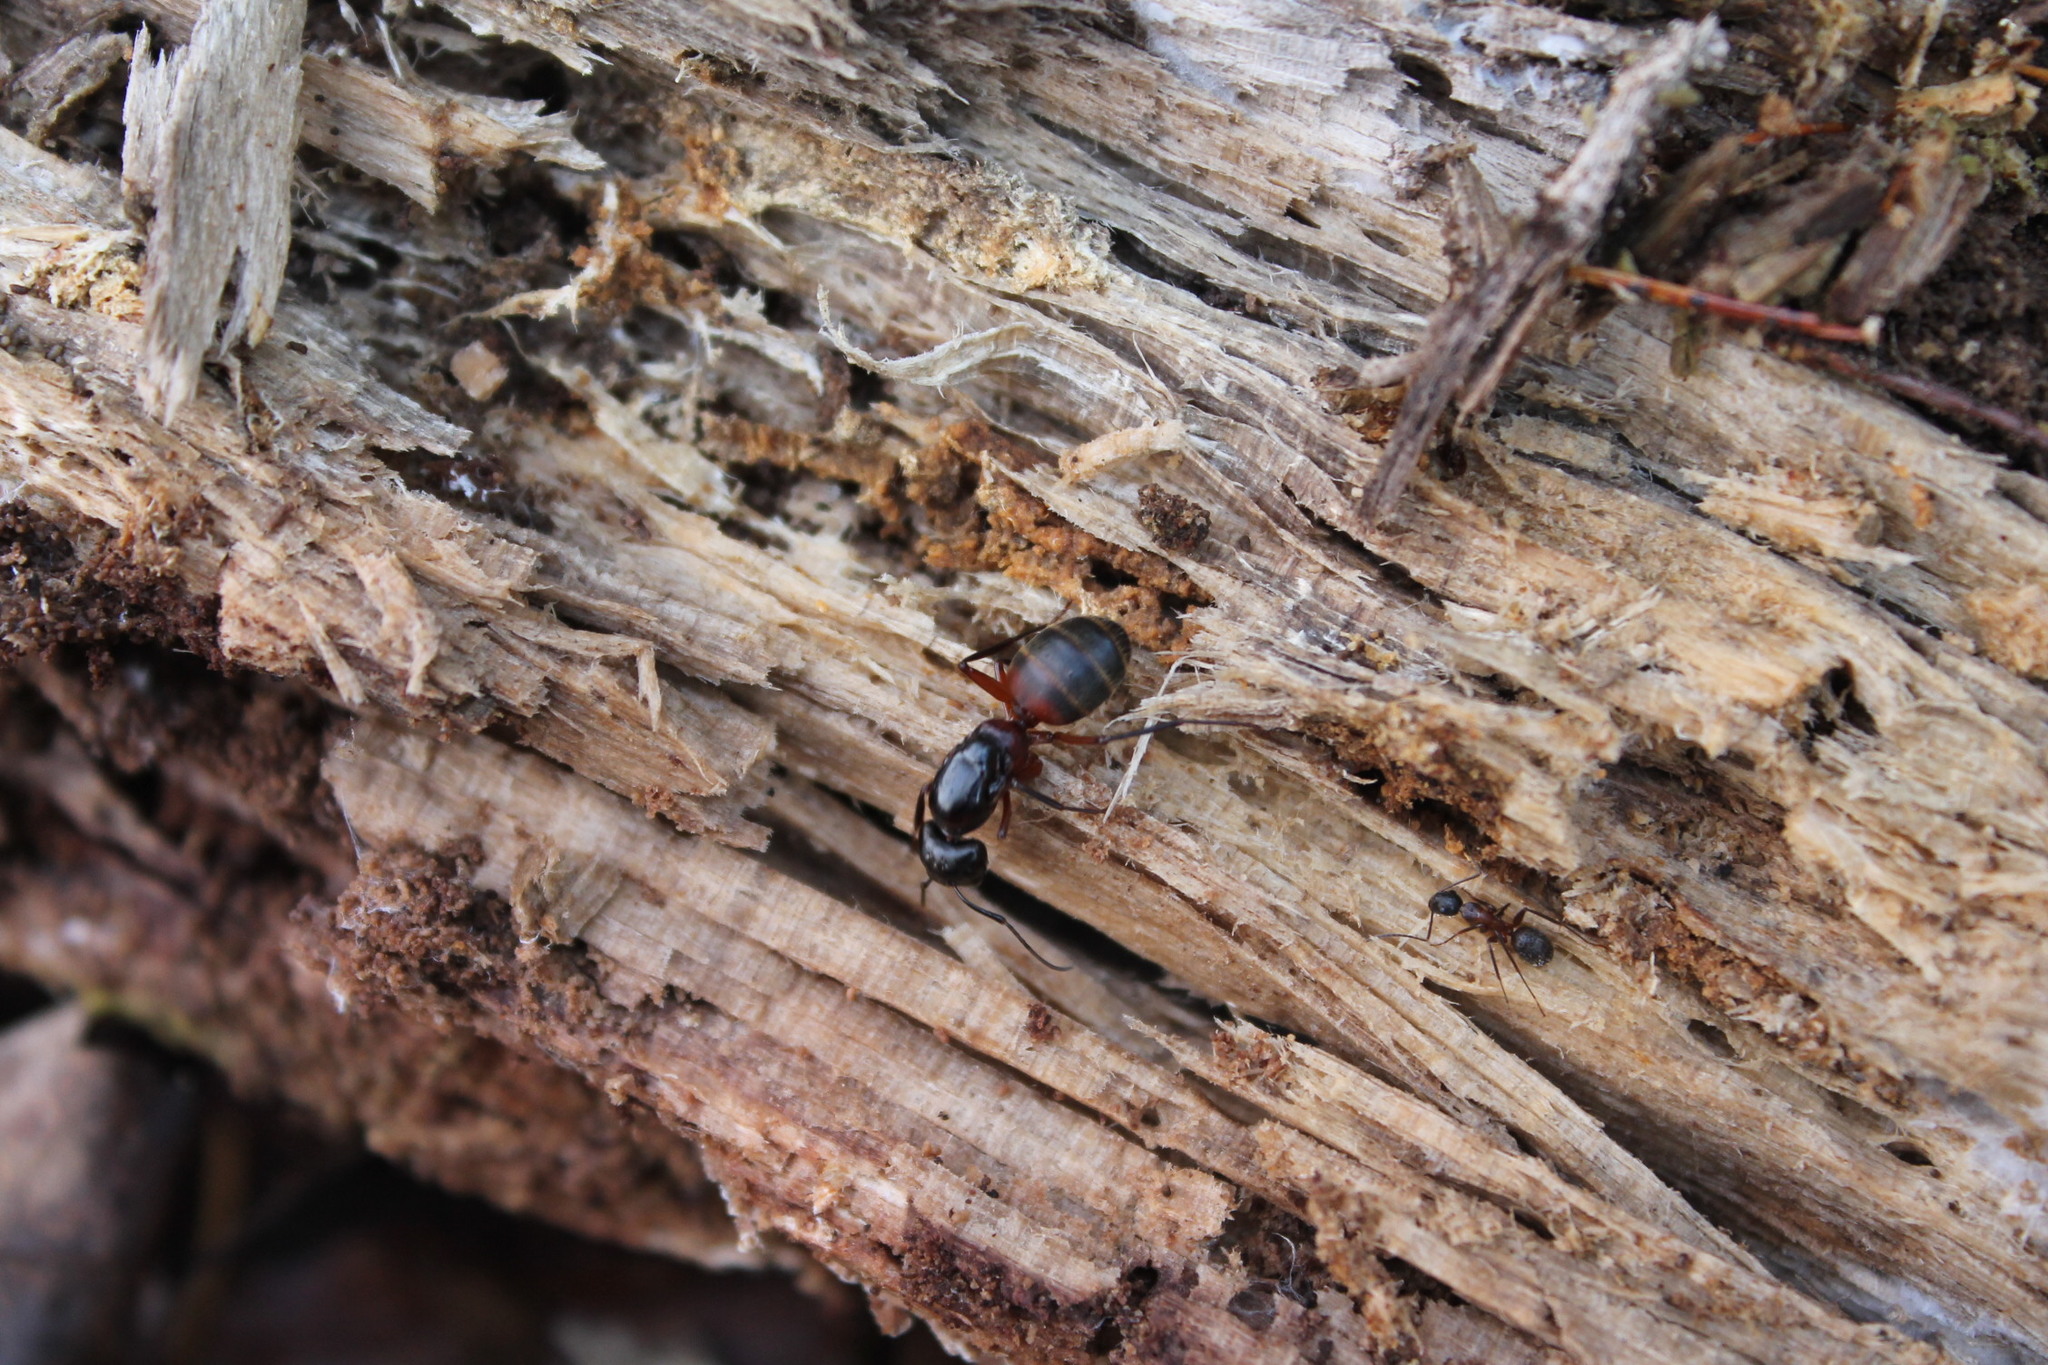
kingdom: Animalia
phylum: Arthropoda
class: Insecta
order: Hymenoptera
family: Formicidae
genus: Camponotus
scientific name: Camponotus chromaiodes
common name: Red carpenter ant
